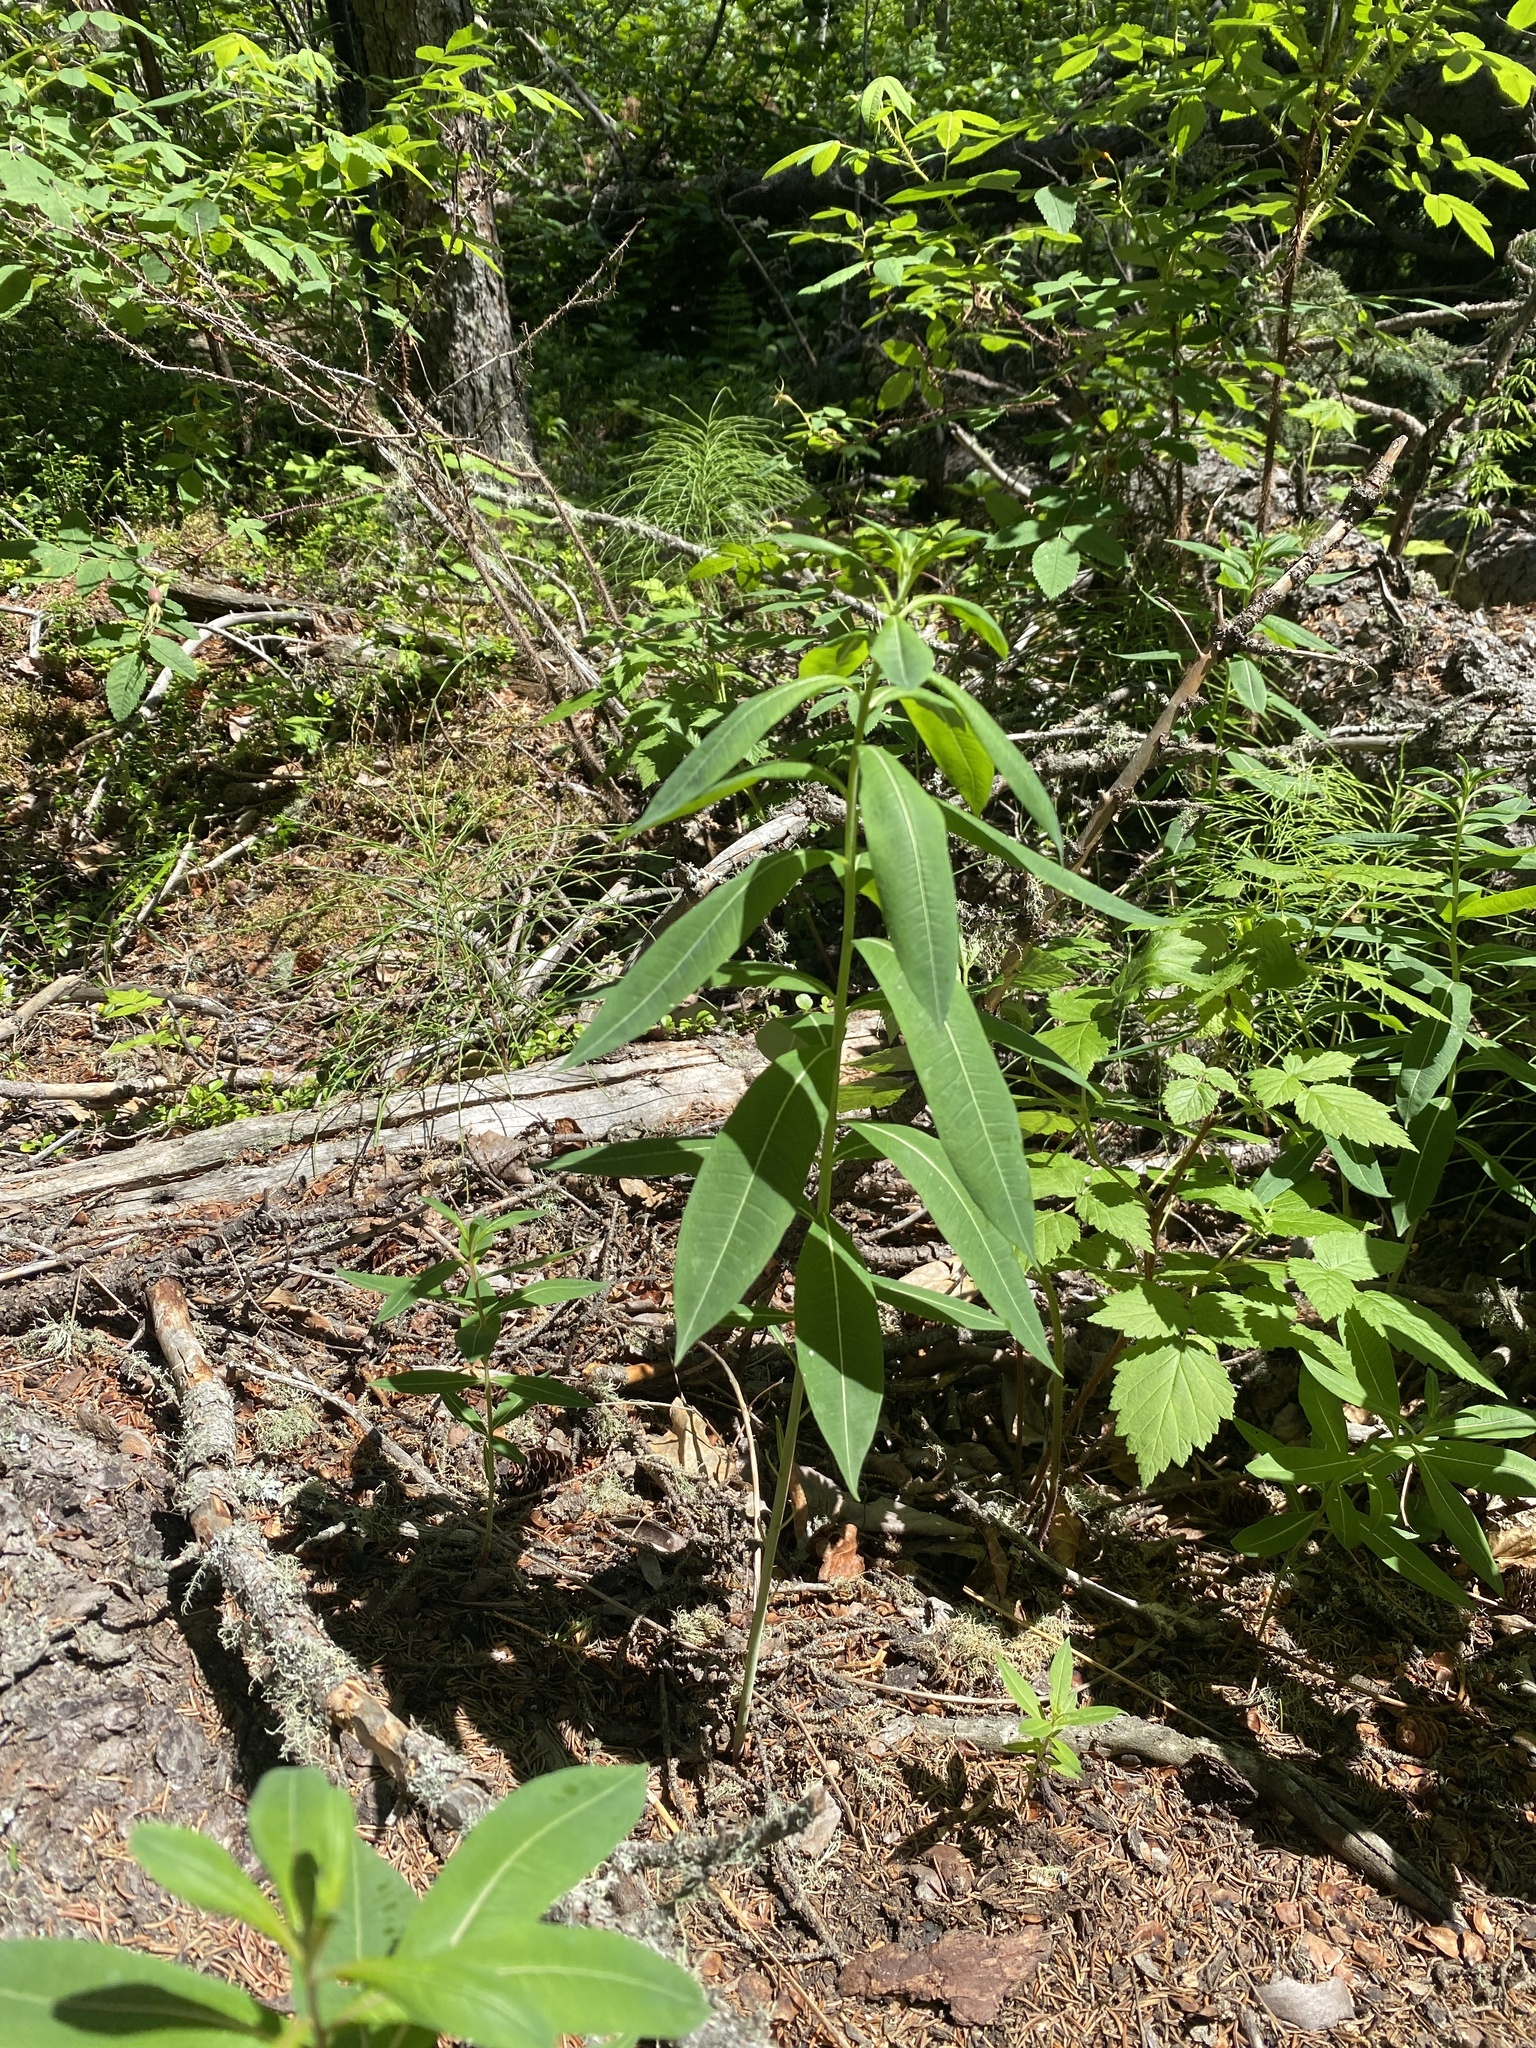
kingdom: Plantae
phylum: Tracheophyta
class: Magnoliopsida
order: Myrtales
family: Onagraceae
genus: Chamaenerion
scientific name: Chamaenerion angustifolium
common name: Fireweed
